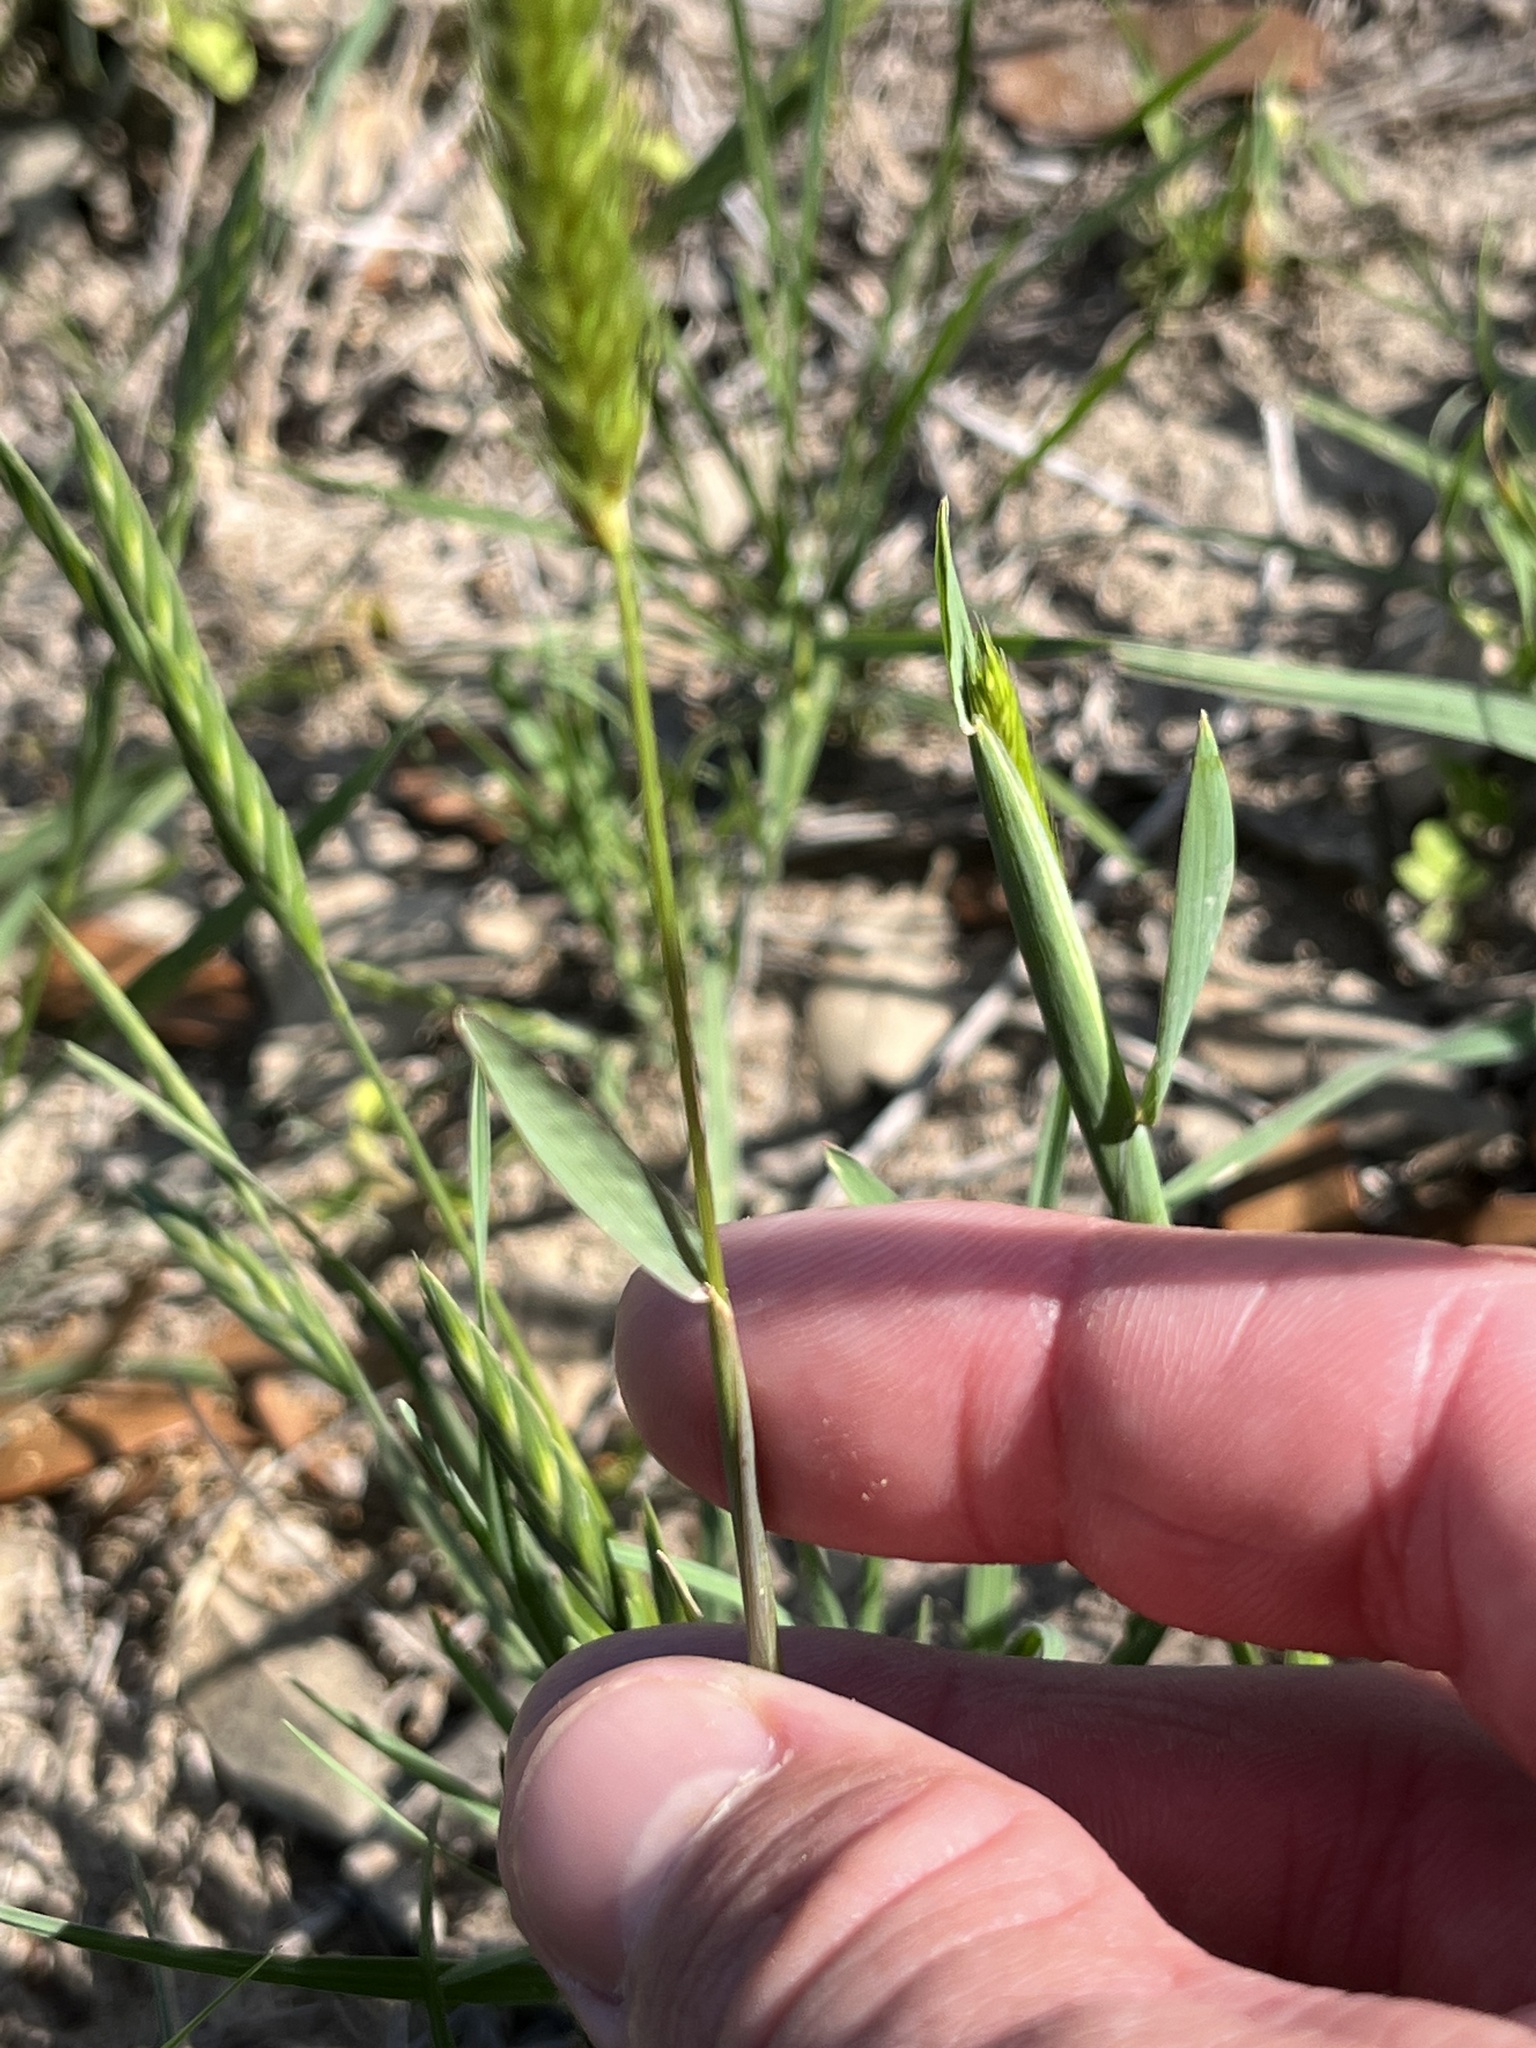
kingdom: Plantae
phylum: Tracheophyta
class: Liliopsida
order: Poales
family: Poaceae
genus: Hordeum
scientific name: Hordeum pusillum
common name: Little barley
